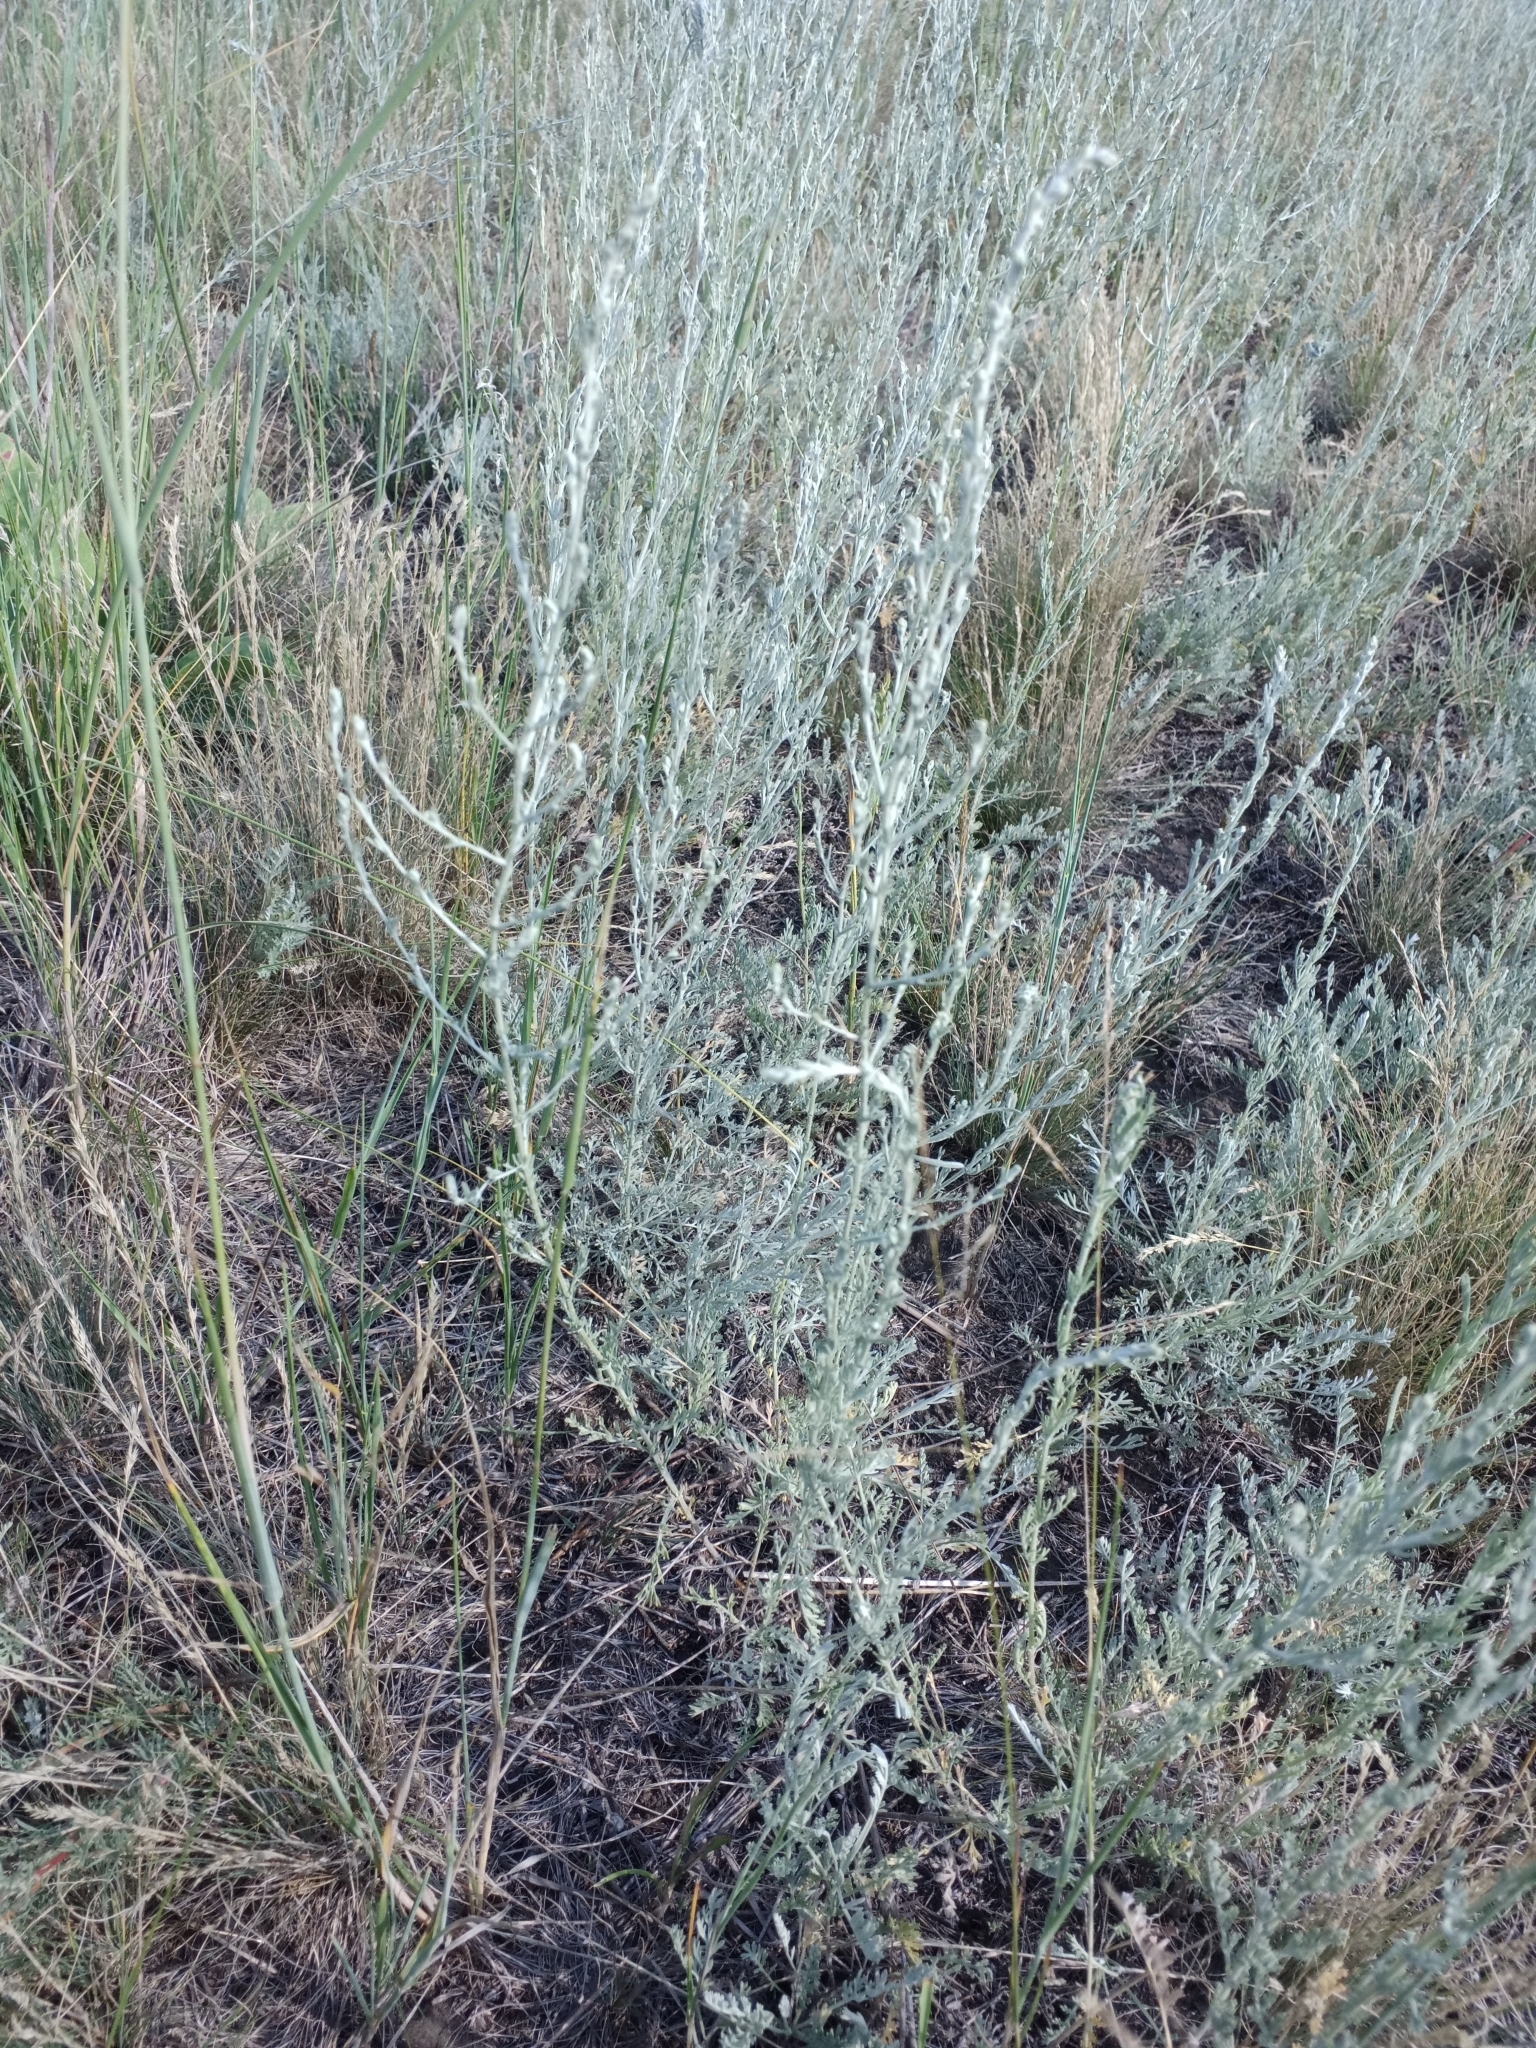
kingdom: Plantae
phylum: Tracheophyta
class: Magnoliopsida
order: Asterales
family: Asteraceae
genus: Artemisia
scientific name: Artemisia nitrosa
